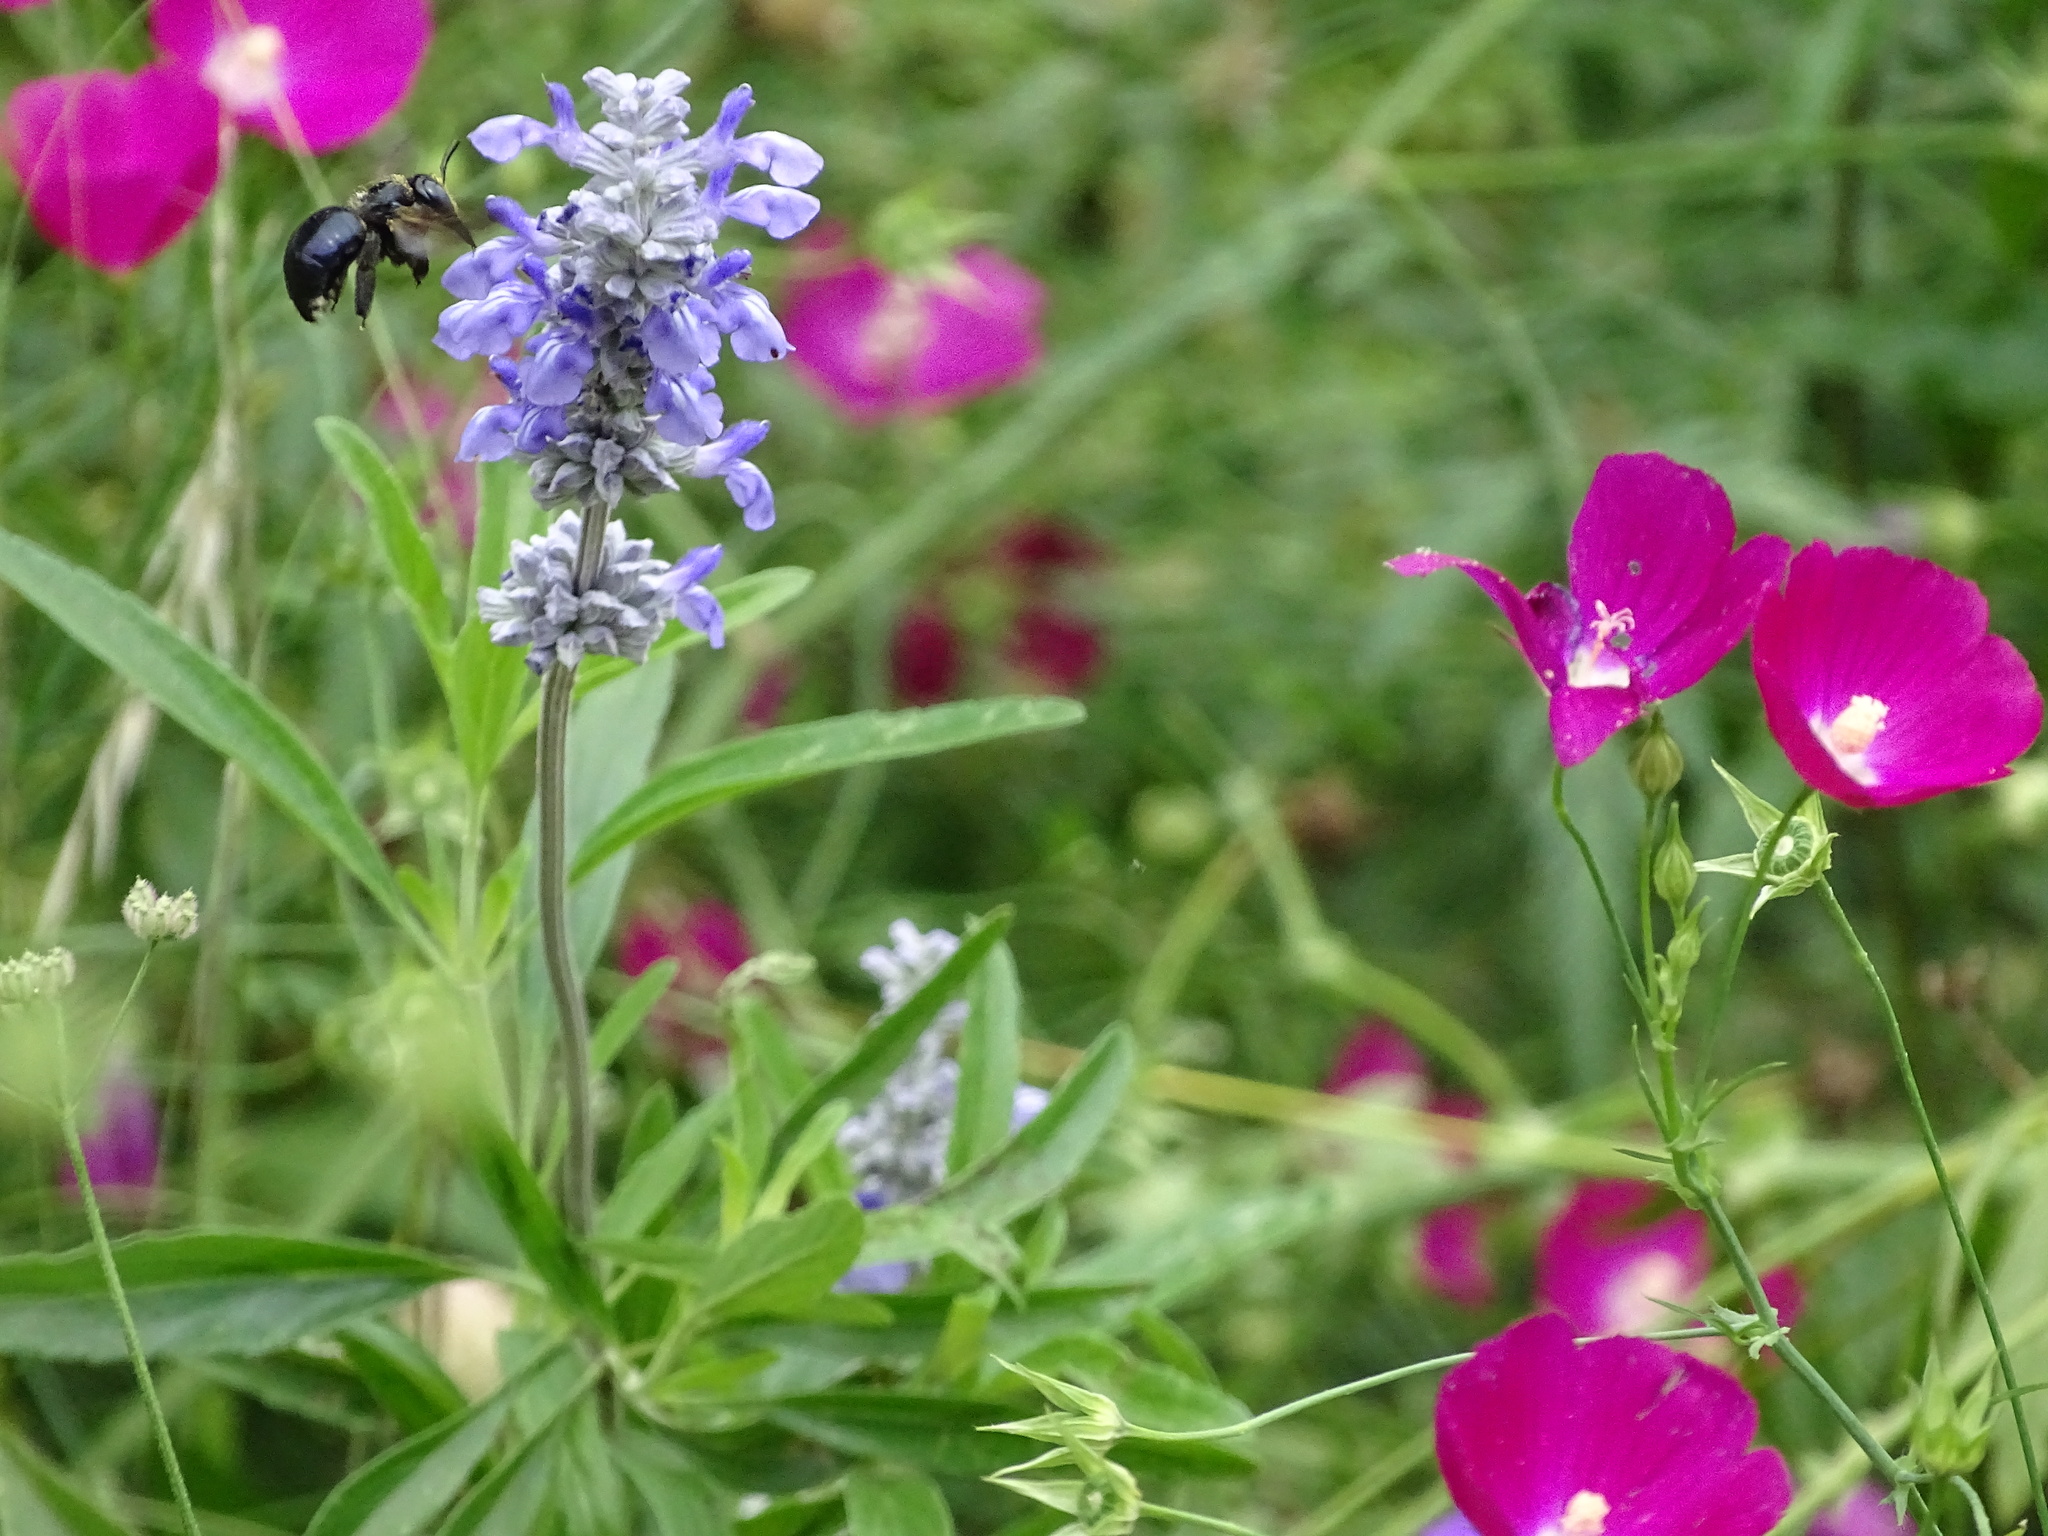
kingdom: Animalia
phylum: Arthropoda
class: Insecta
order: Hymenoptera
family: Apidae
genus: Xylocopa
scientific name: Xylocopa micans
